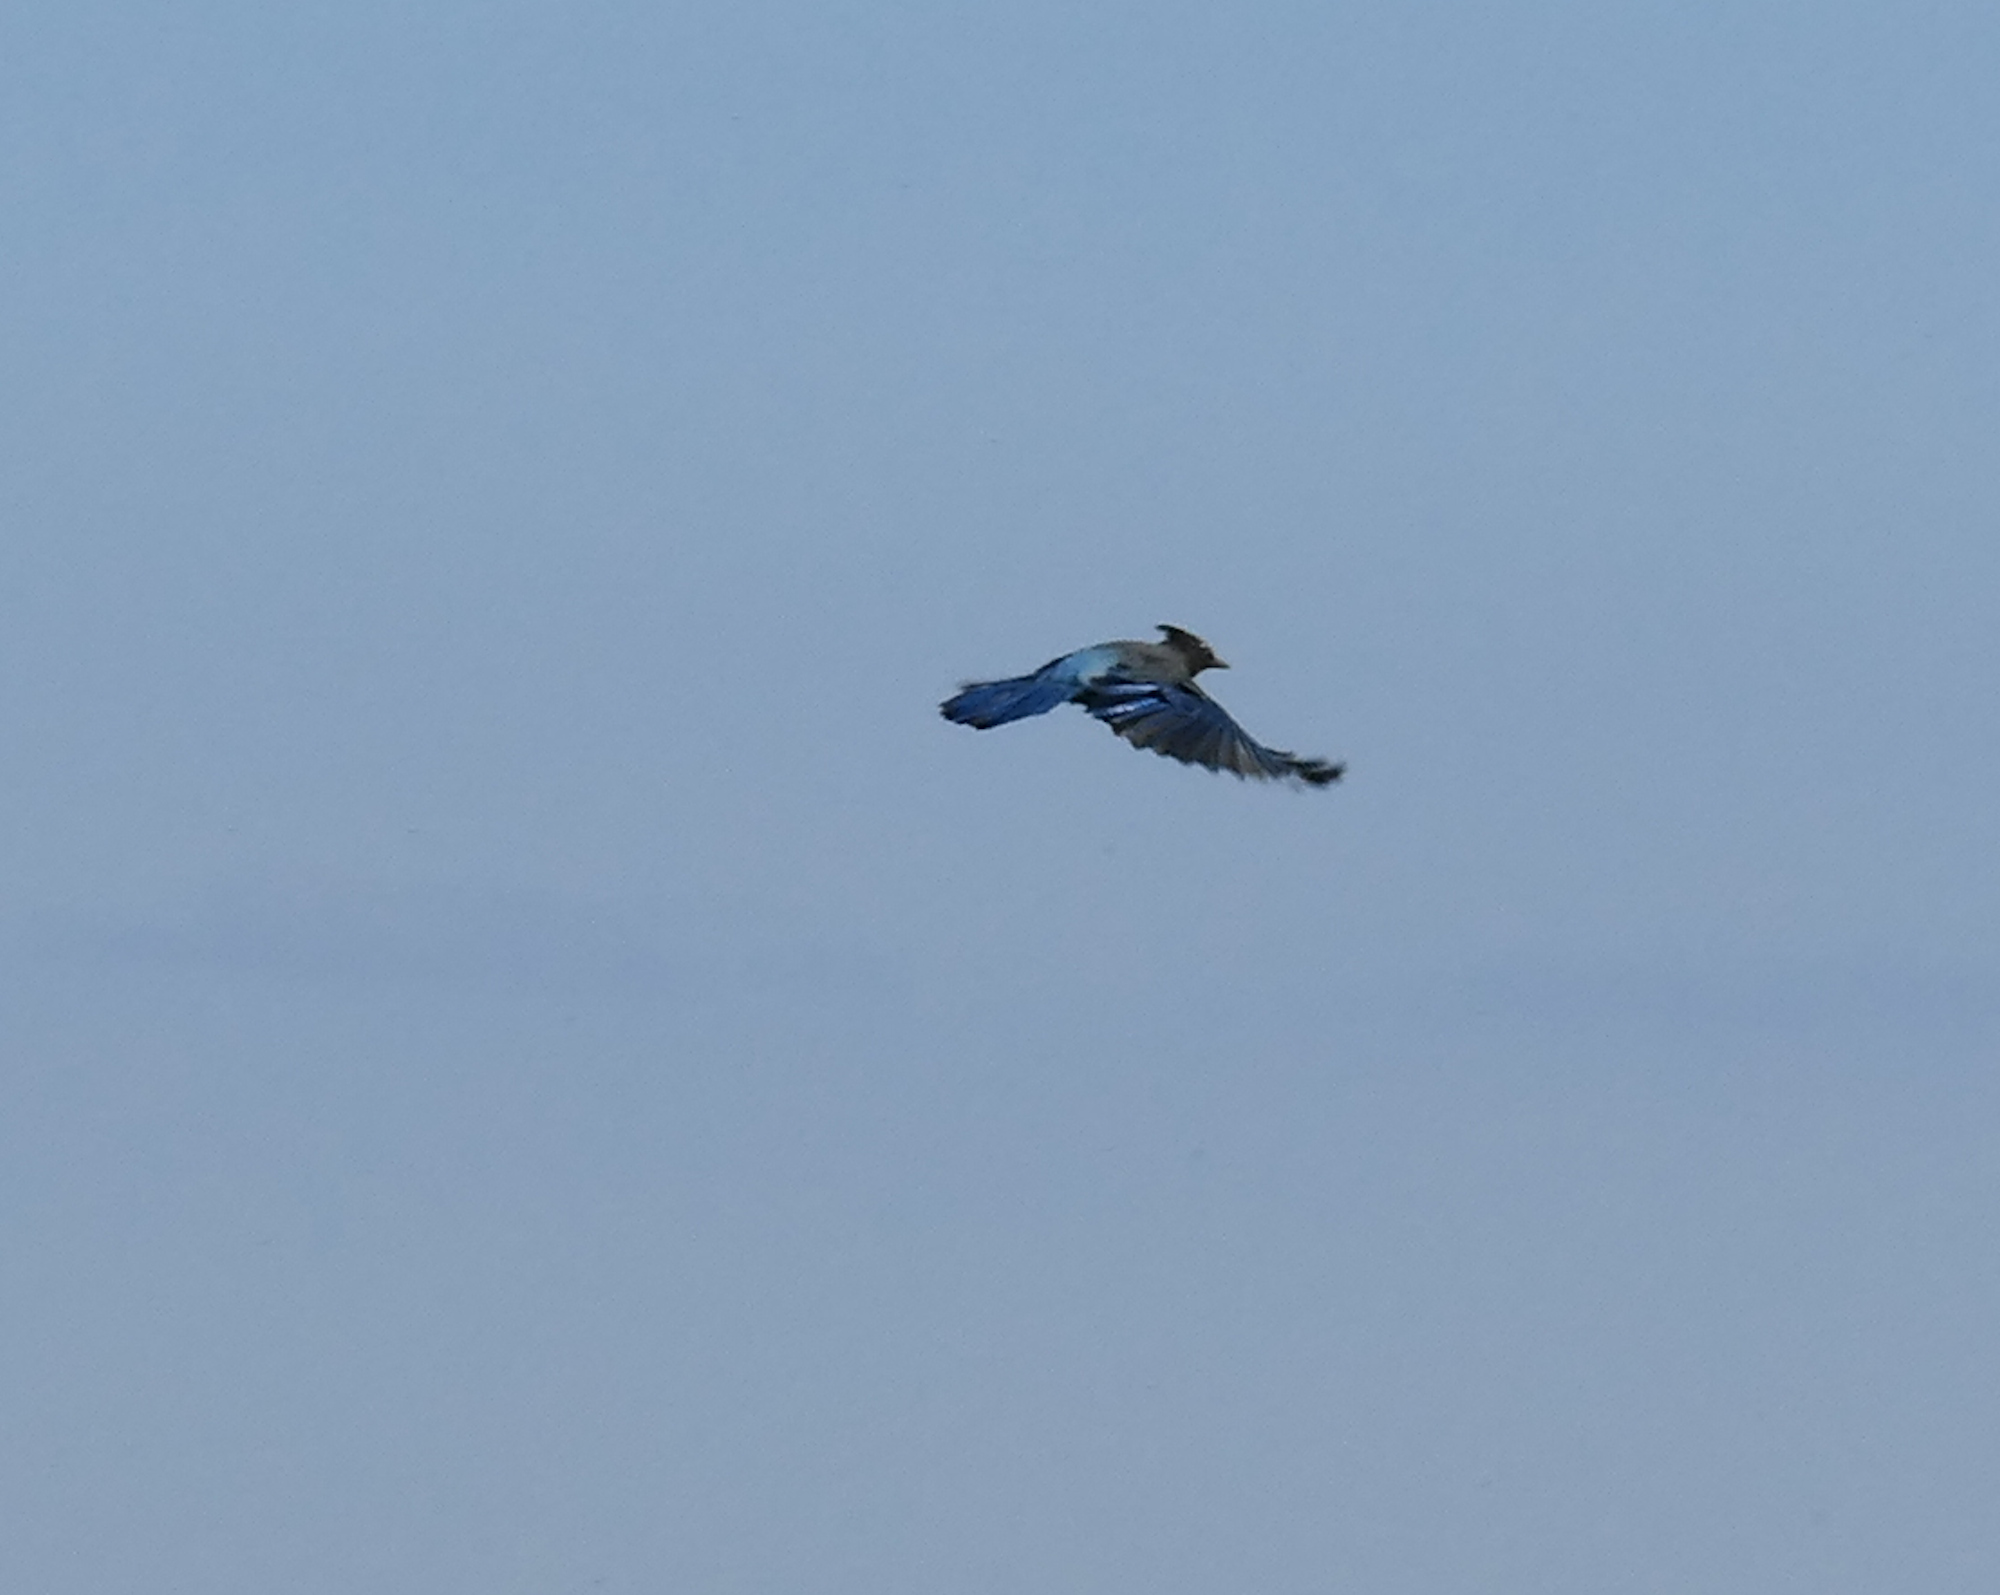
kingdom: Animalia
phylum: Chordata
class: Aves
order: Passeriformes
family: Corvidae
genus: Cyanocitta
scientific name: Cyanocitta stelleri
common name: Steller's jay
